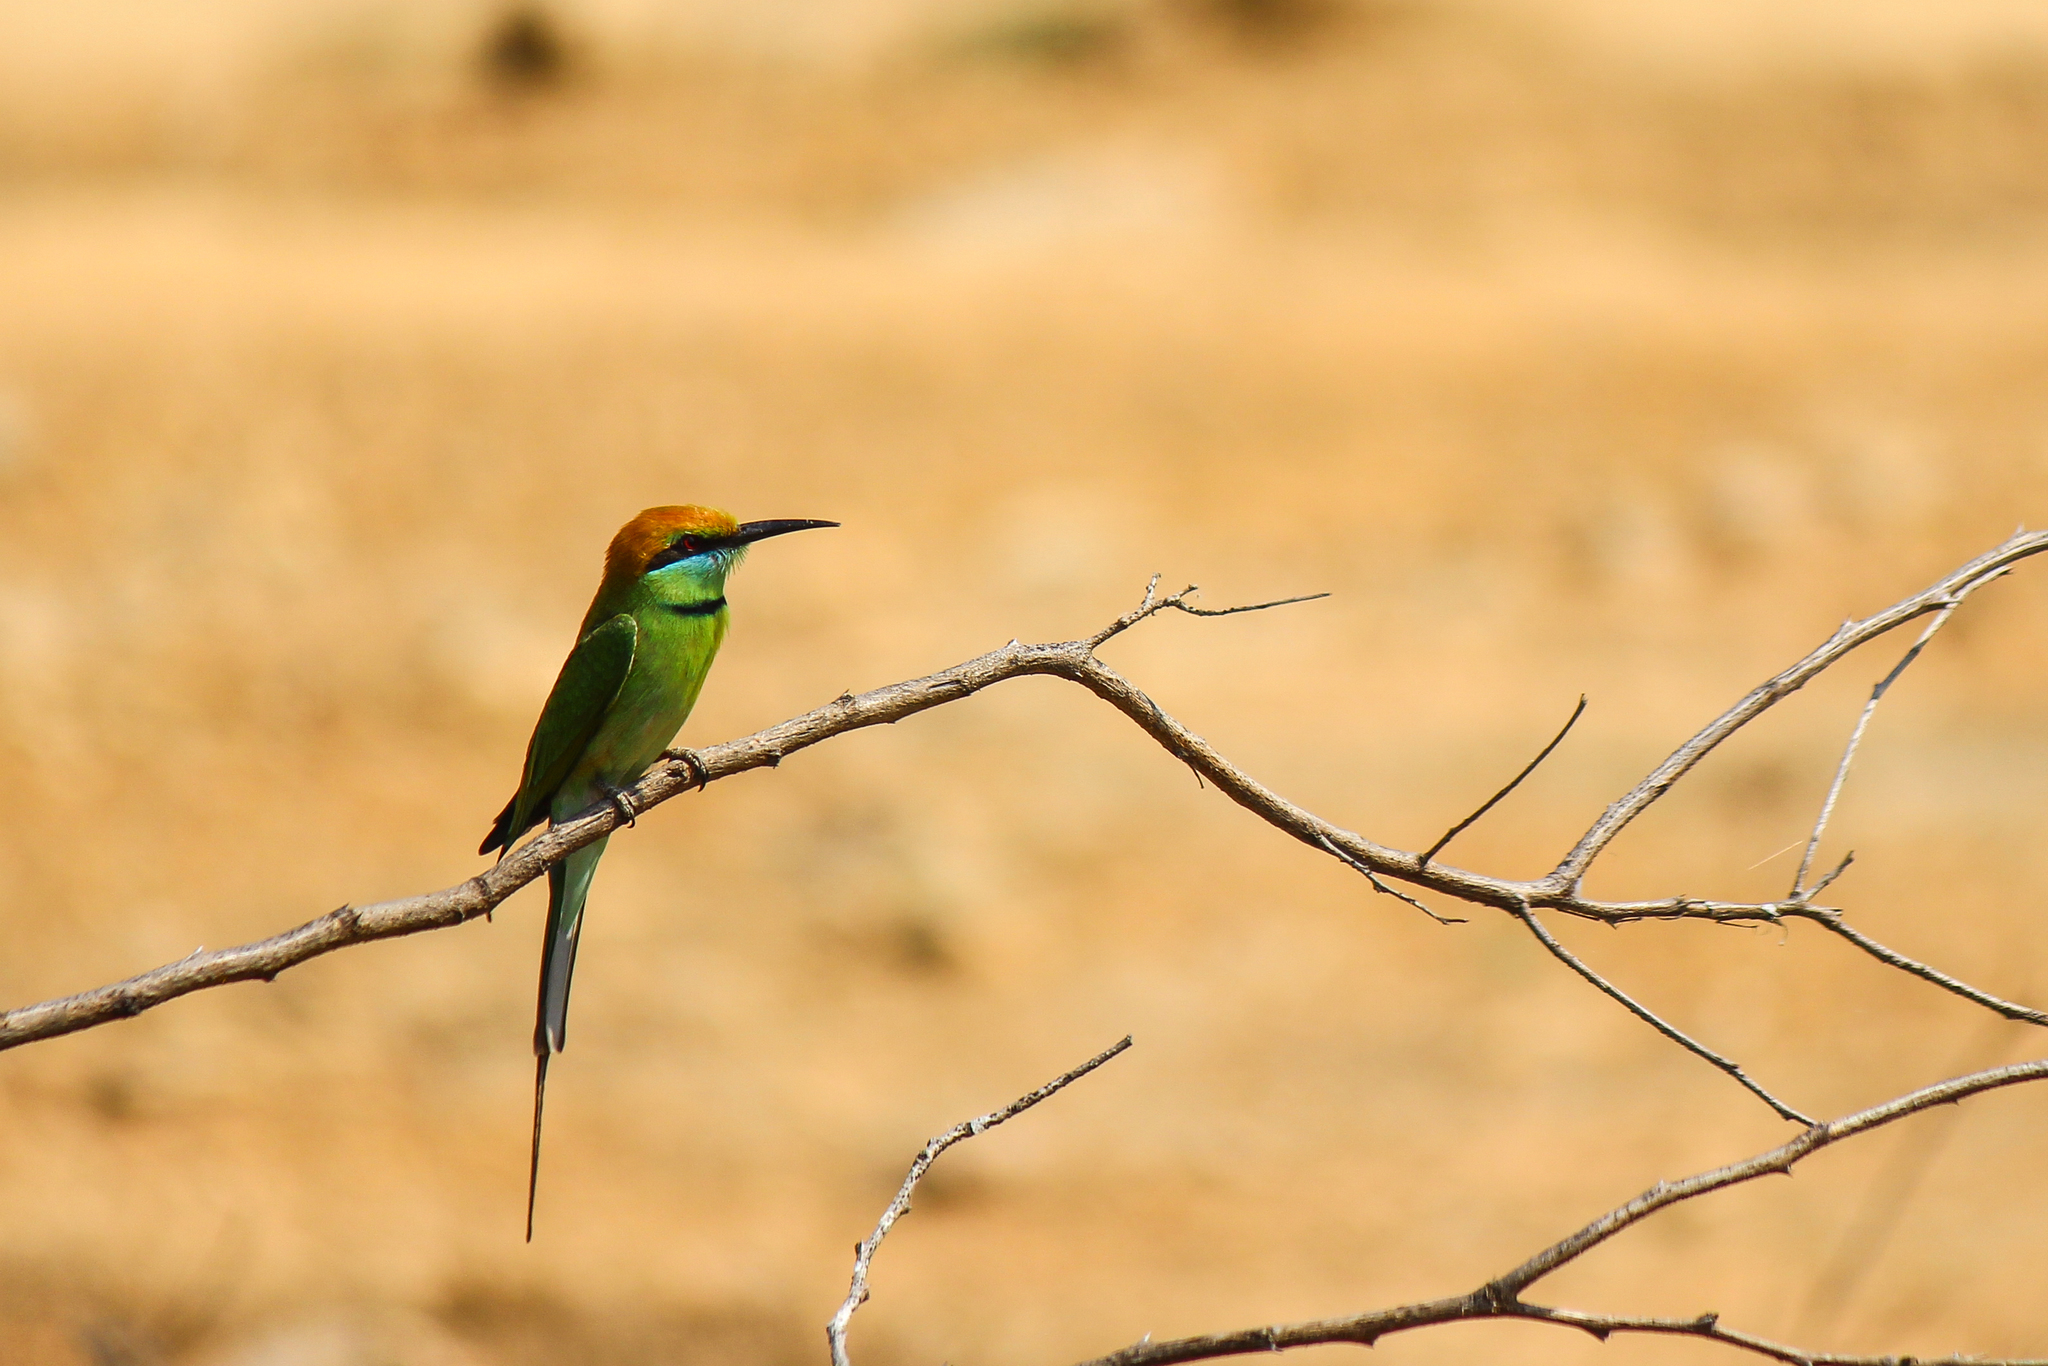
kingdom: Animalia
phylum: Chordata
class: Aves
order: Coraciiformes
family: Meropidae
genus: Merops
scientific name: Merops orientalis
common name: Green bee-eater
